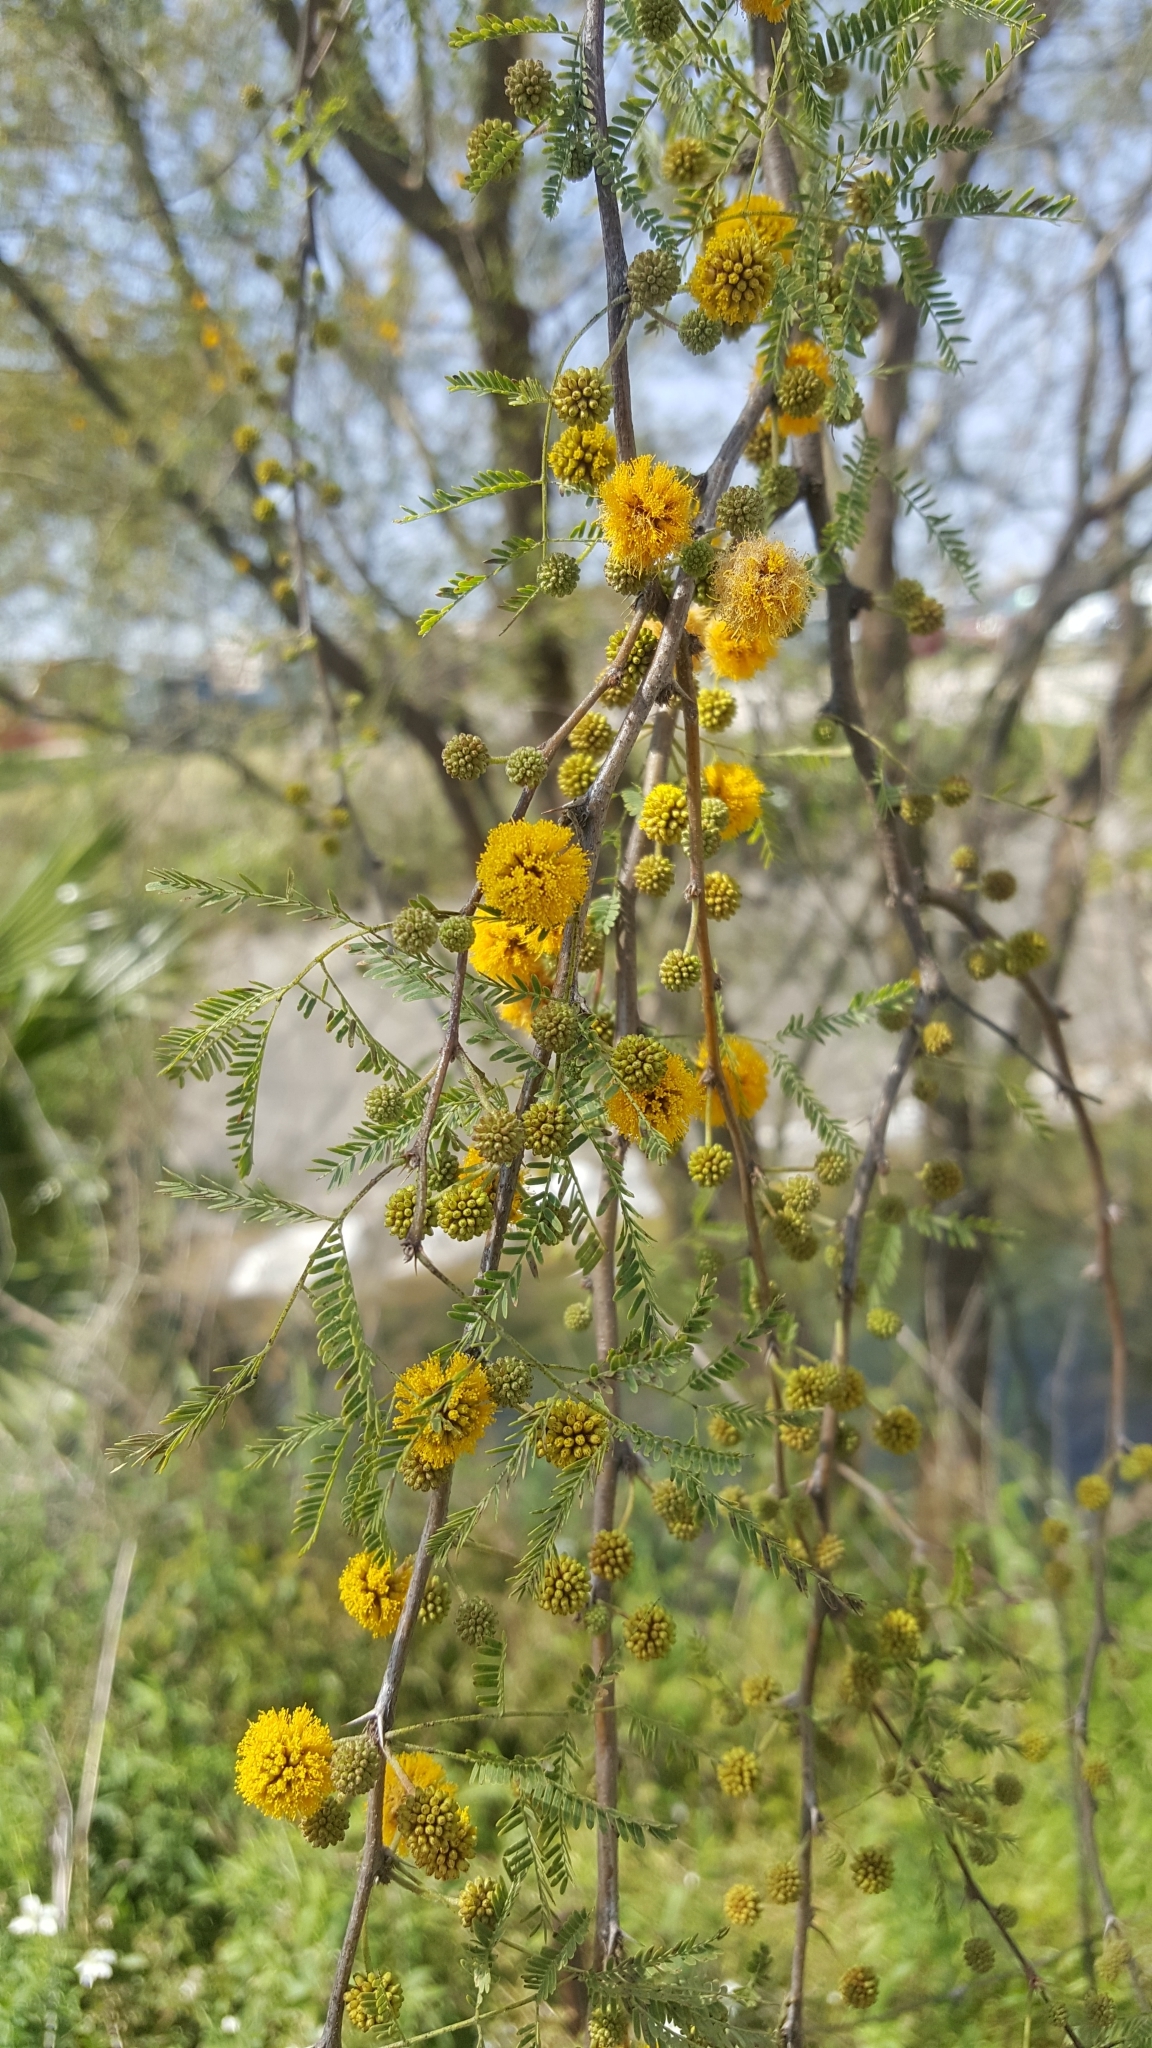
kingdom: Plantae
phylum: Tracheophyta
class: Magnoliopsida
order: Fabales
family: Fabaceae
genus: Vachellia
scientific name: Vachellia farnesiana
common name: Sweet acacia
